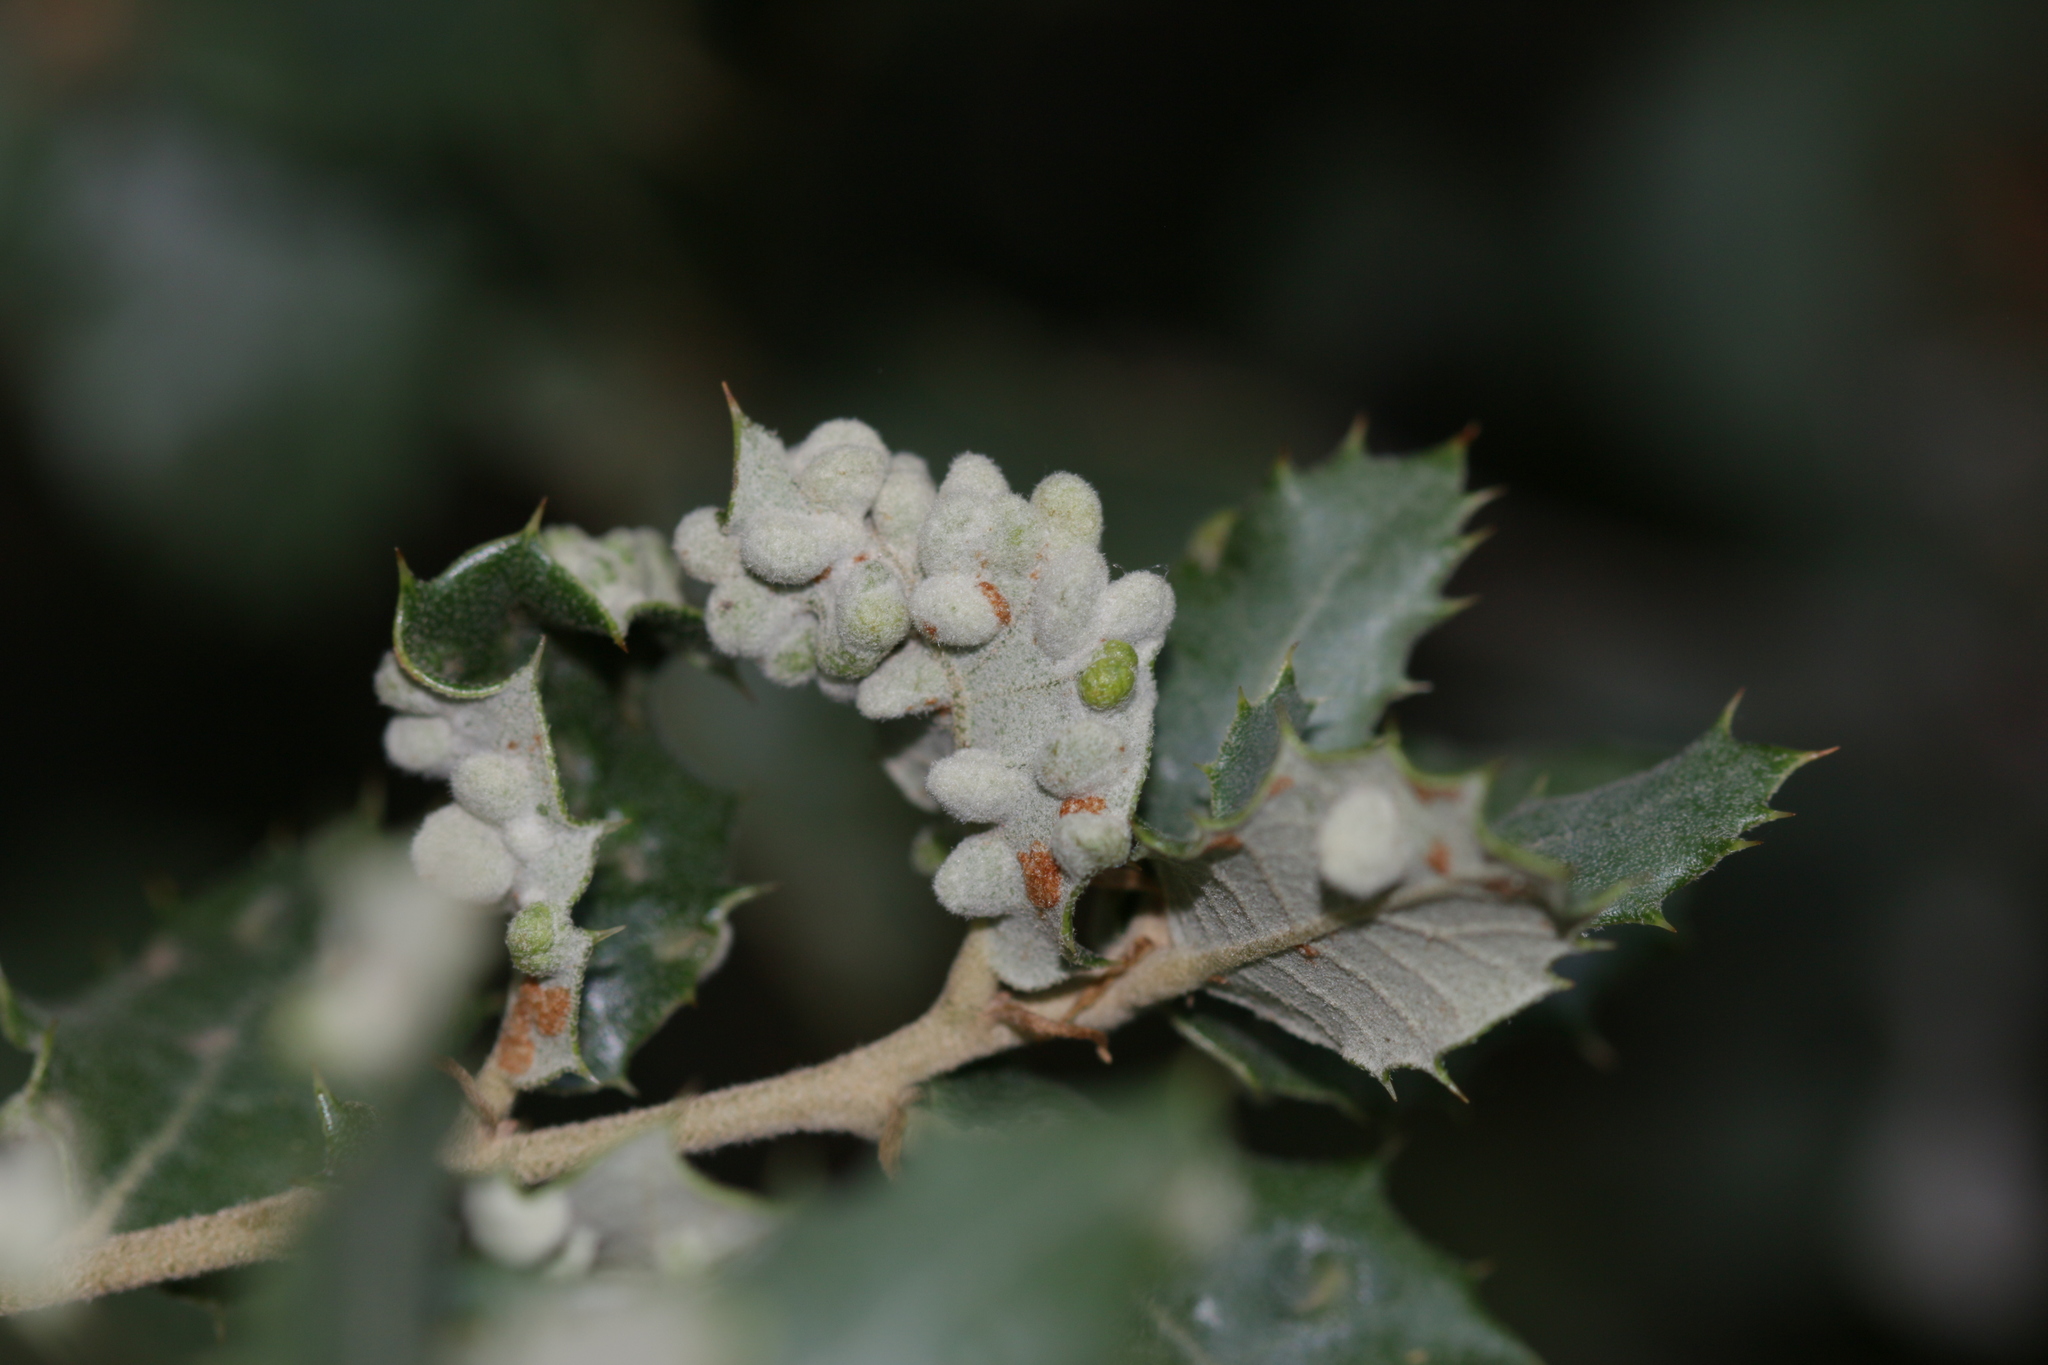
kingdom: Animalia
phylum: Arthropoda
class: Insecta
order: Diptera
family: Cecidomyiidae
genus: Dryomyia
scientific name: Dryomyia lichtensteinii
